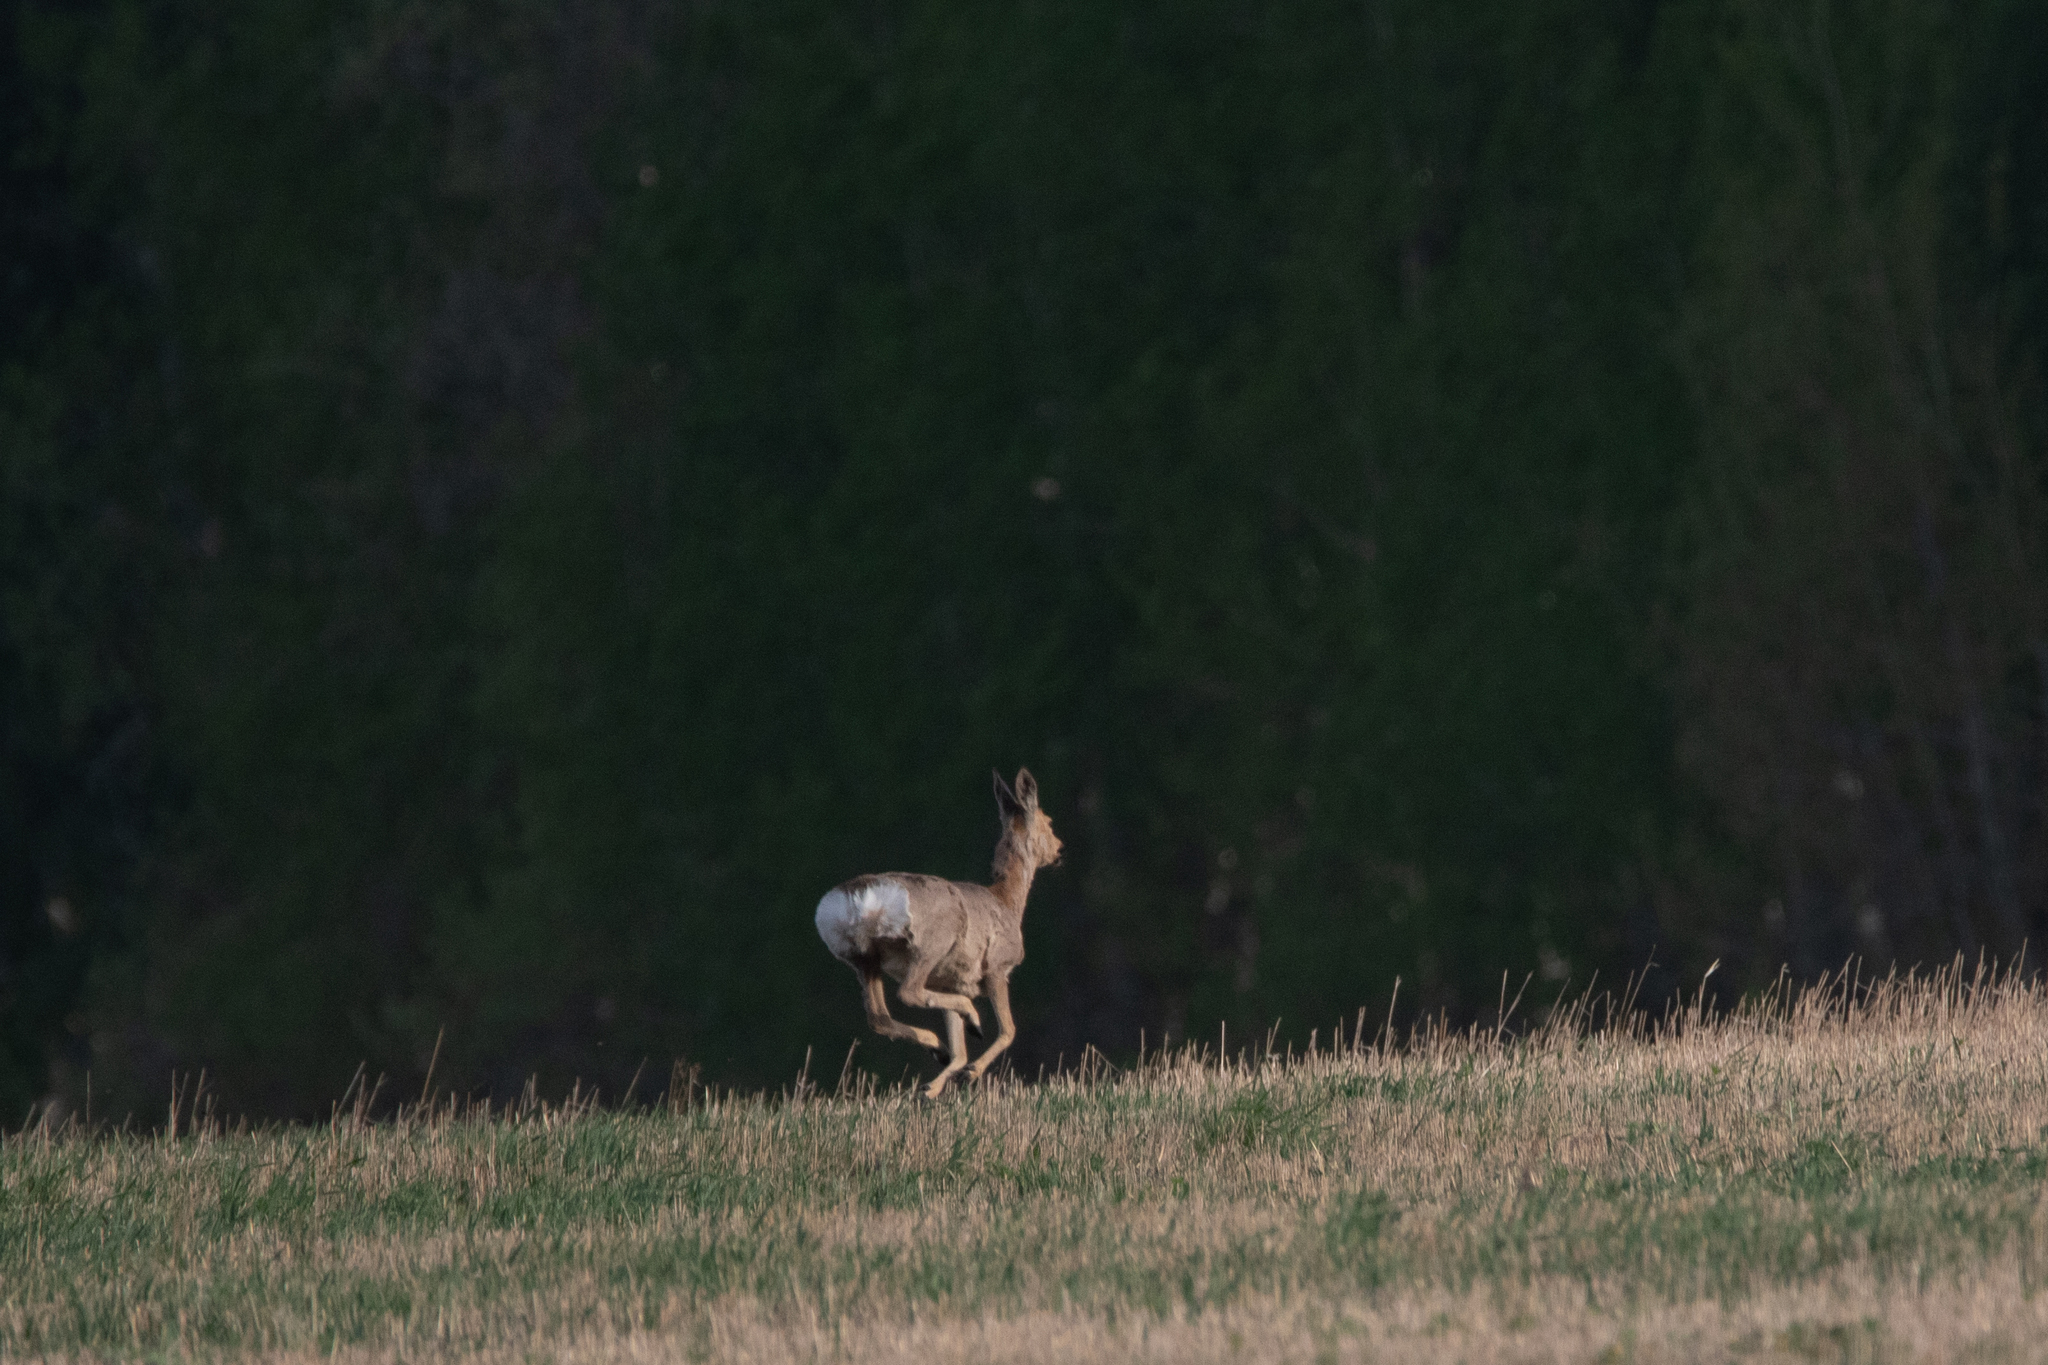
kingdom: Animalia
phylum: Chordata
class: Mammalia
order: Artiodactyla
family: Cervidae
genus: Capreolus
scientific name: Capreolus pygargus
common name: Siberian roe
